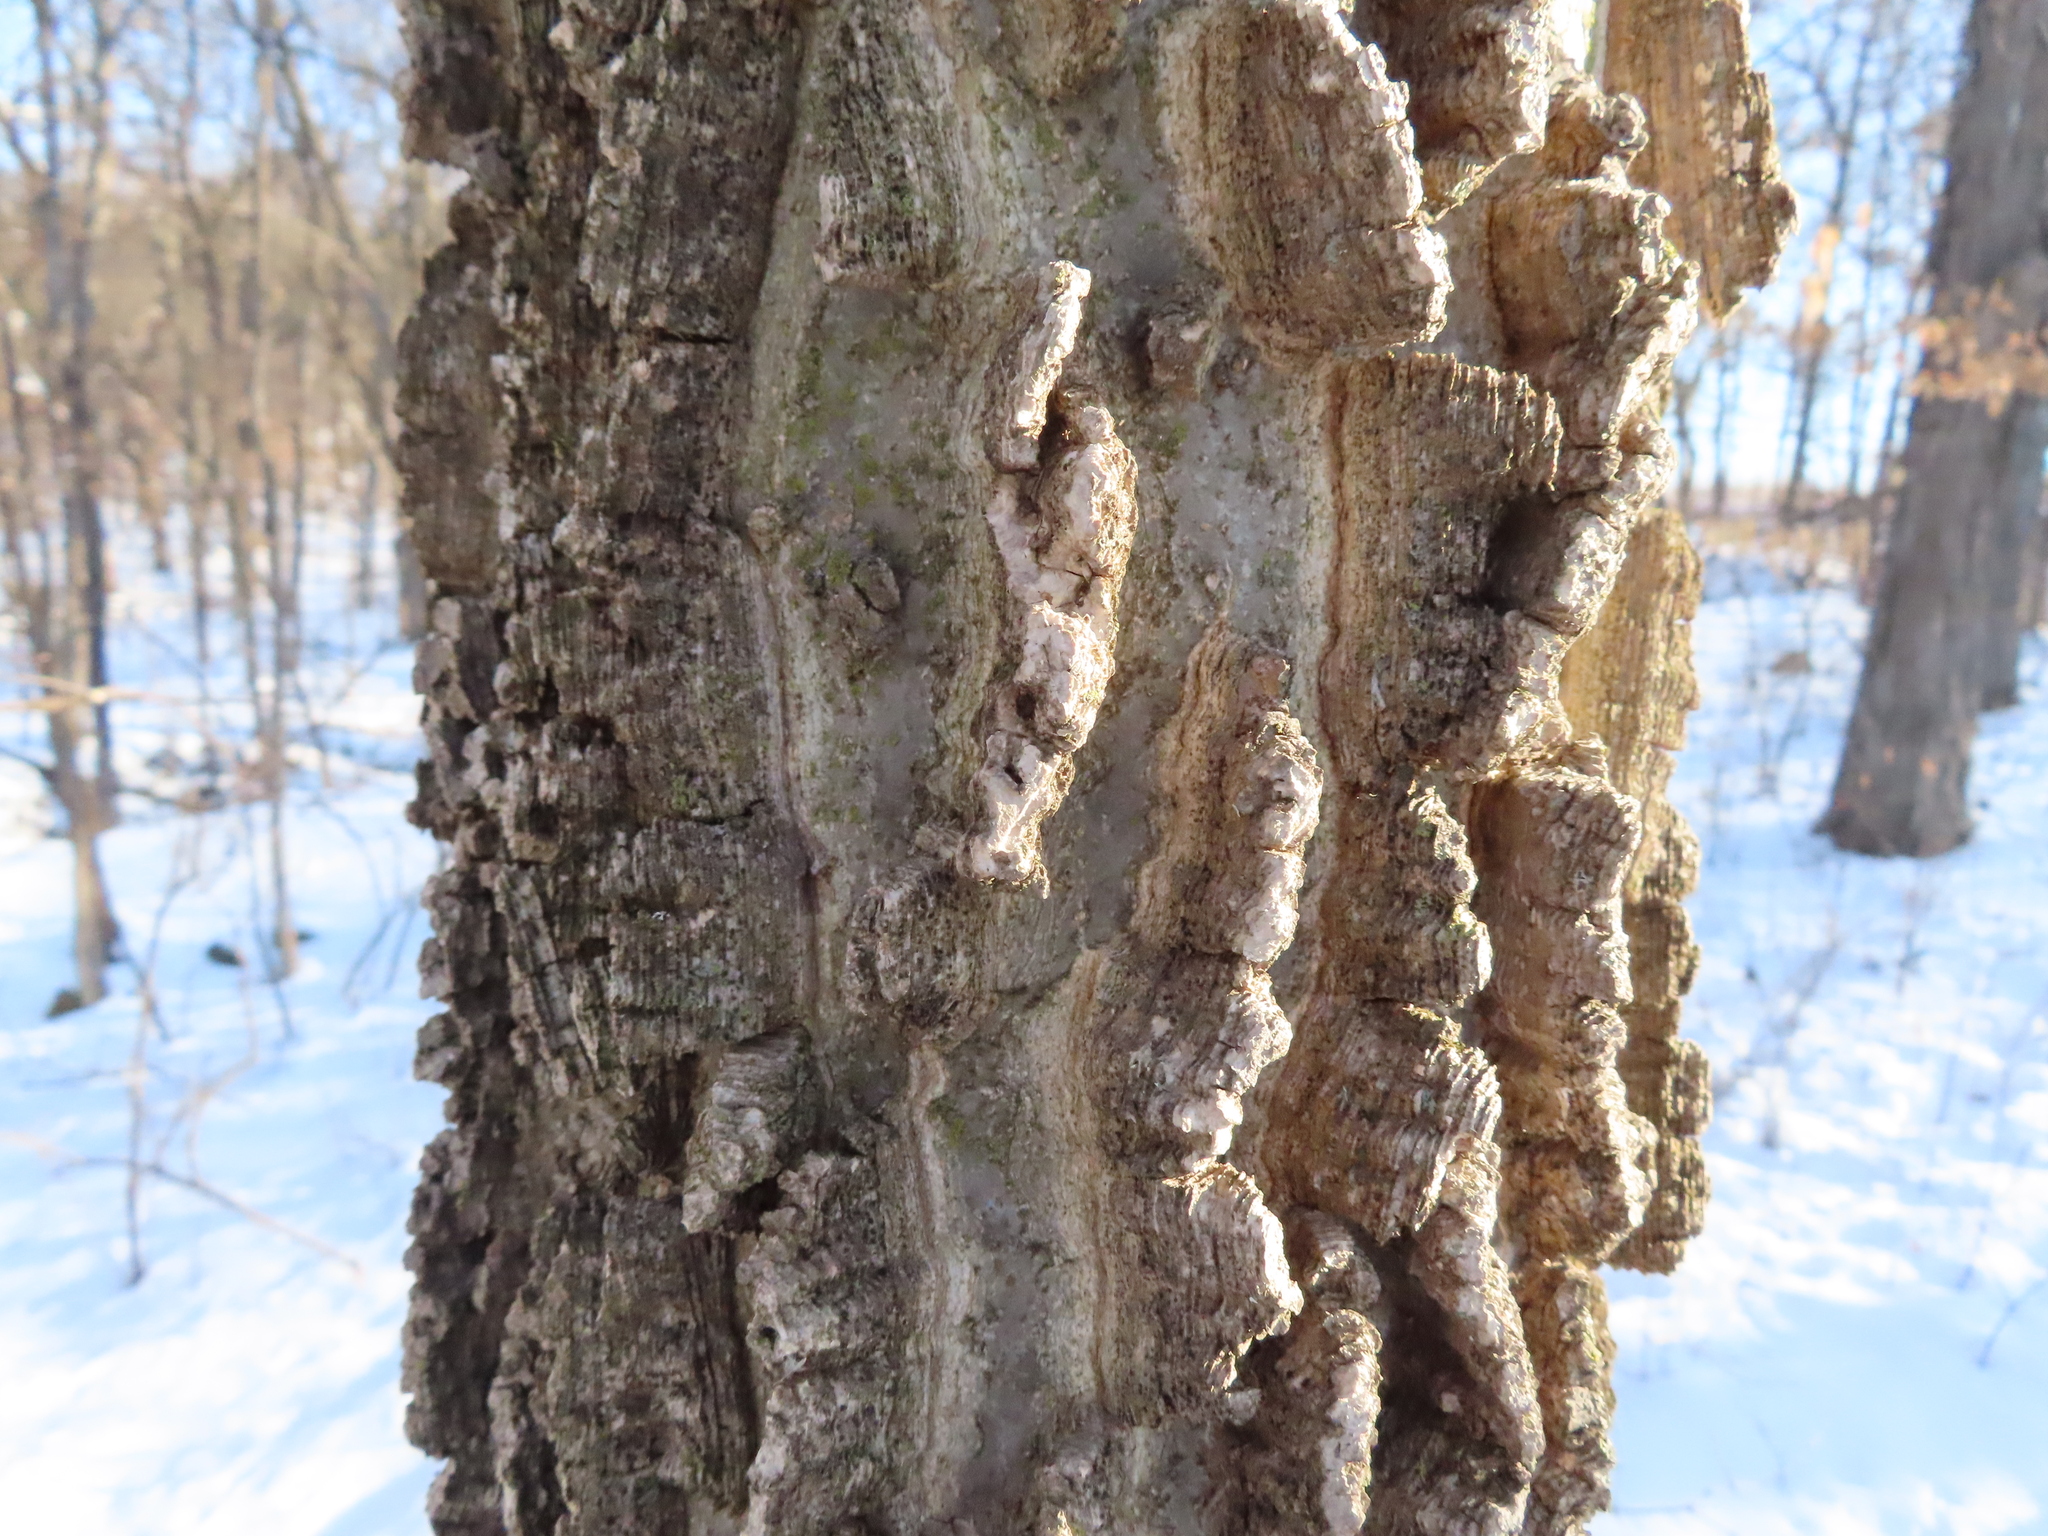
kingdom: Plantae
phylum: Tracheophyta
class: Magnoliopsida
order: Rosales
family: Cannabaceae
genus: Celtis
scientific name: Celtis occidentalis
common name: Common hackberry
